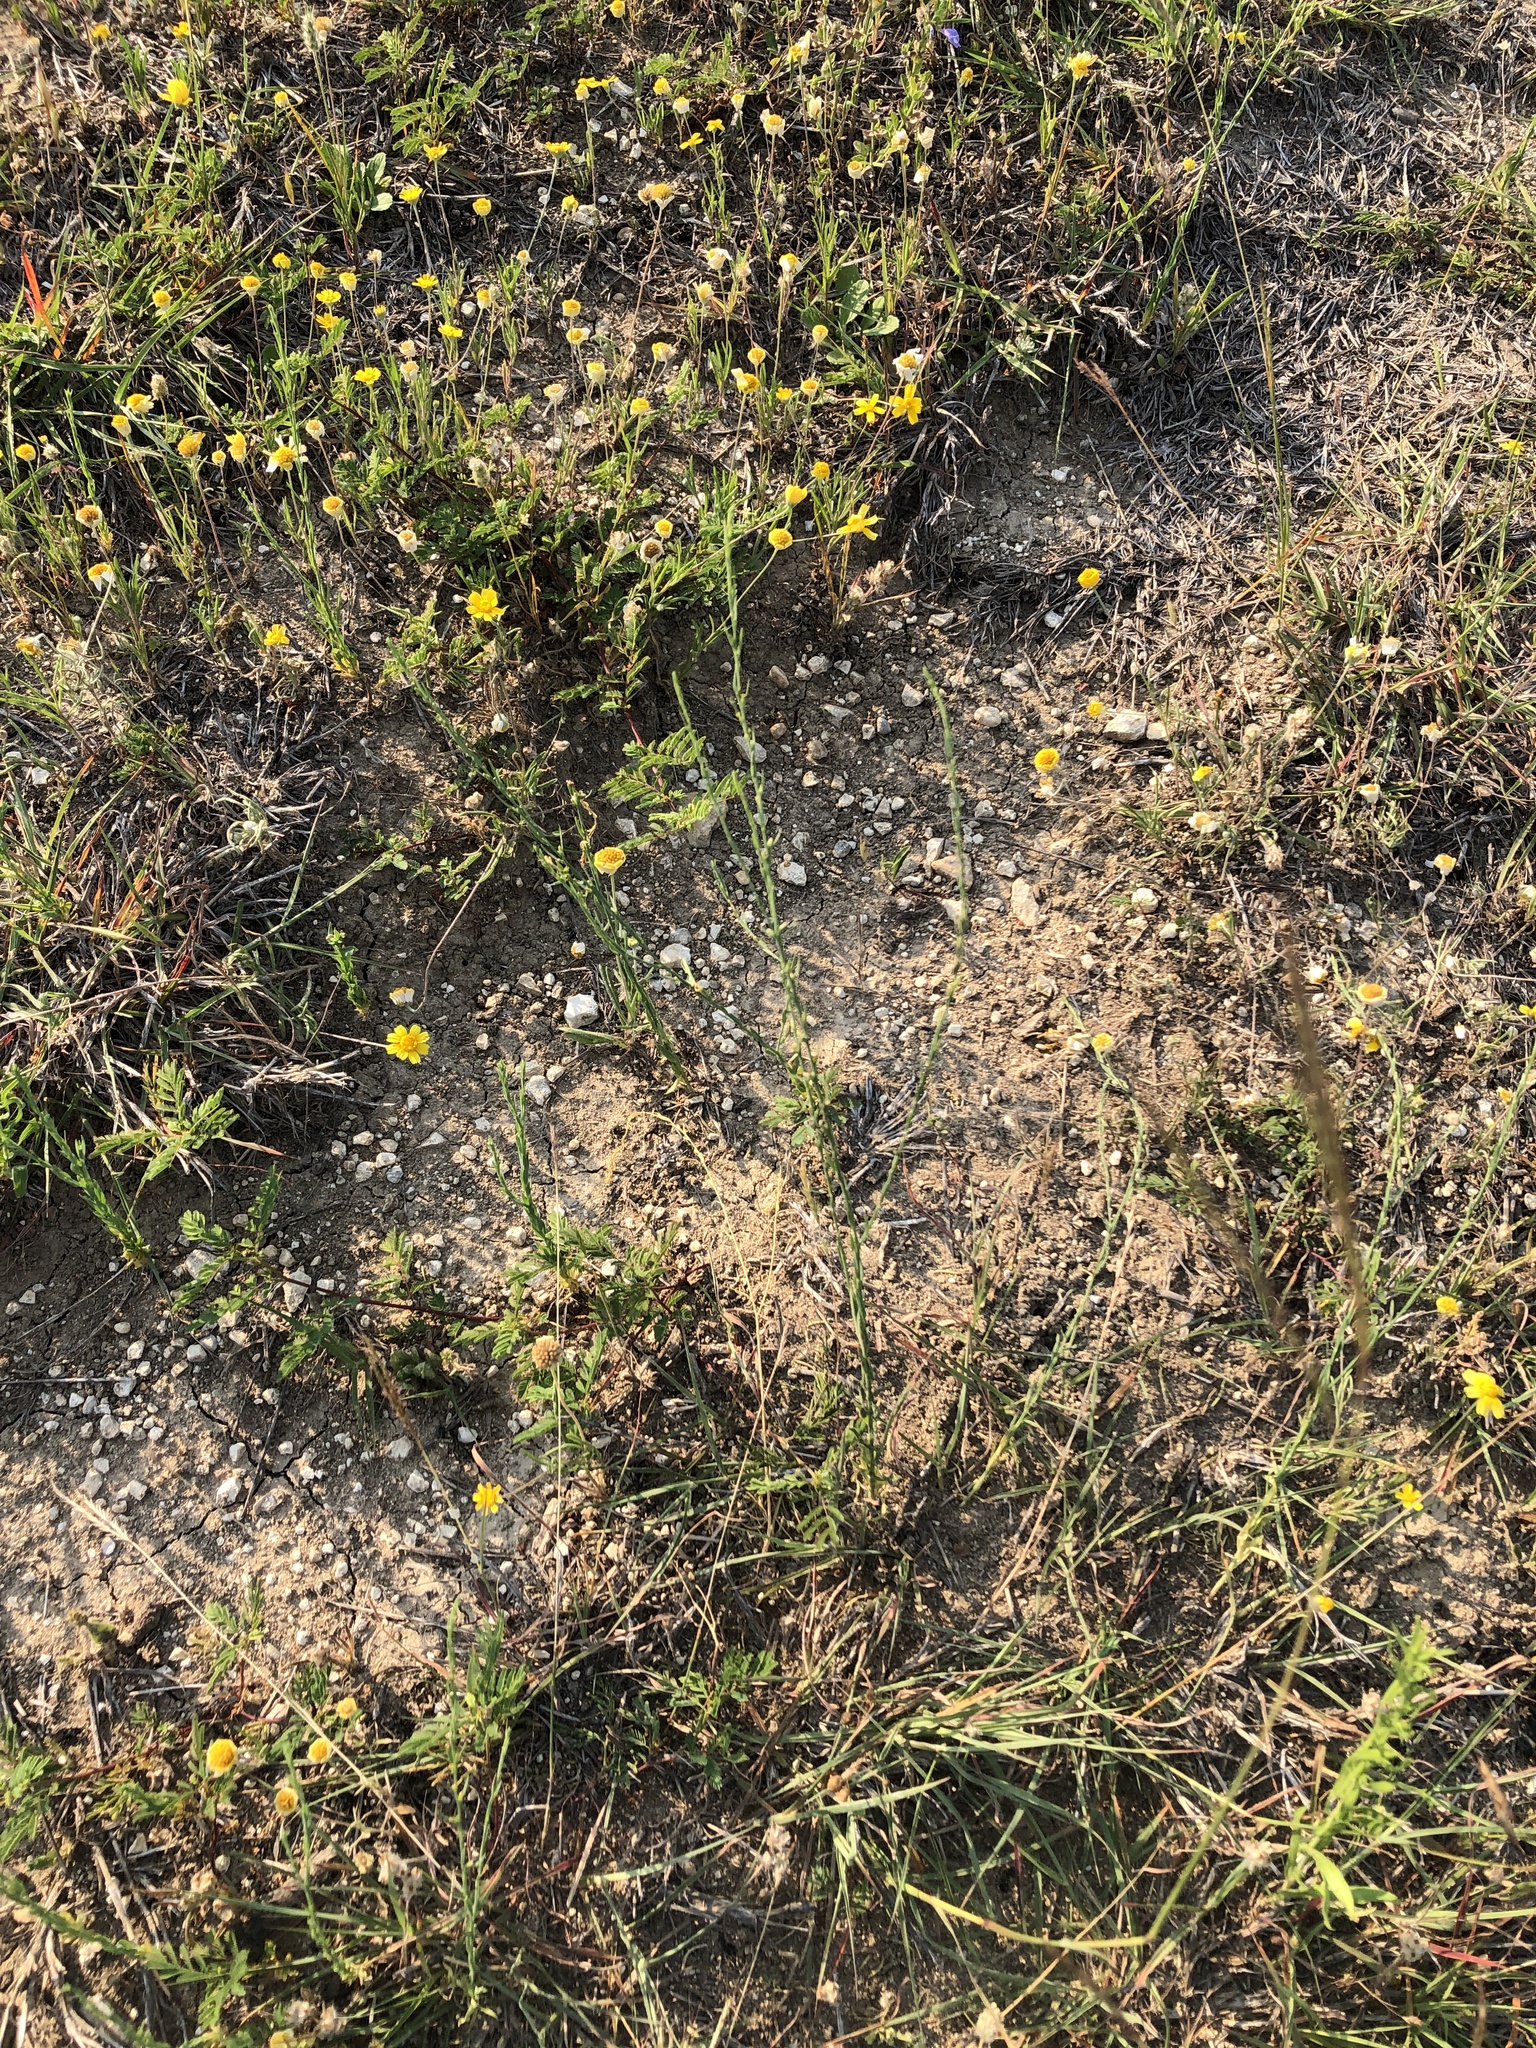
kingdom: Plantae
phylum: Tracheophyta
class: Magnoliopsida
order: Malvales
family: Thymelaeaceae
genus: Thymelaea
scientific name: Thymelaea passerina
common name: Annual thymelaea
